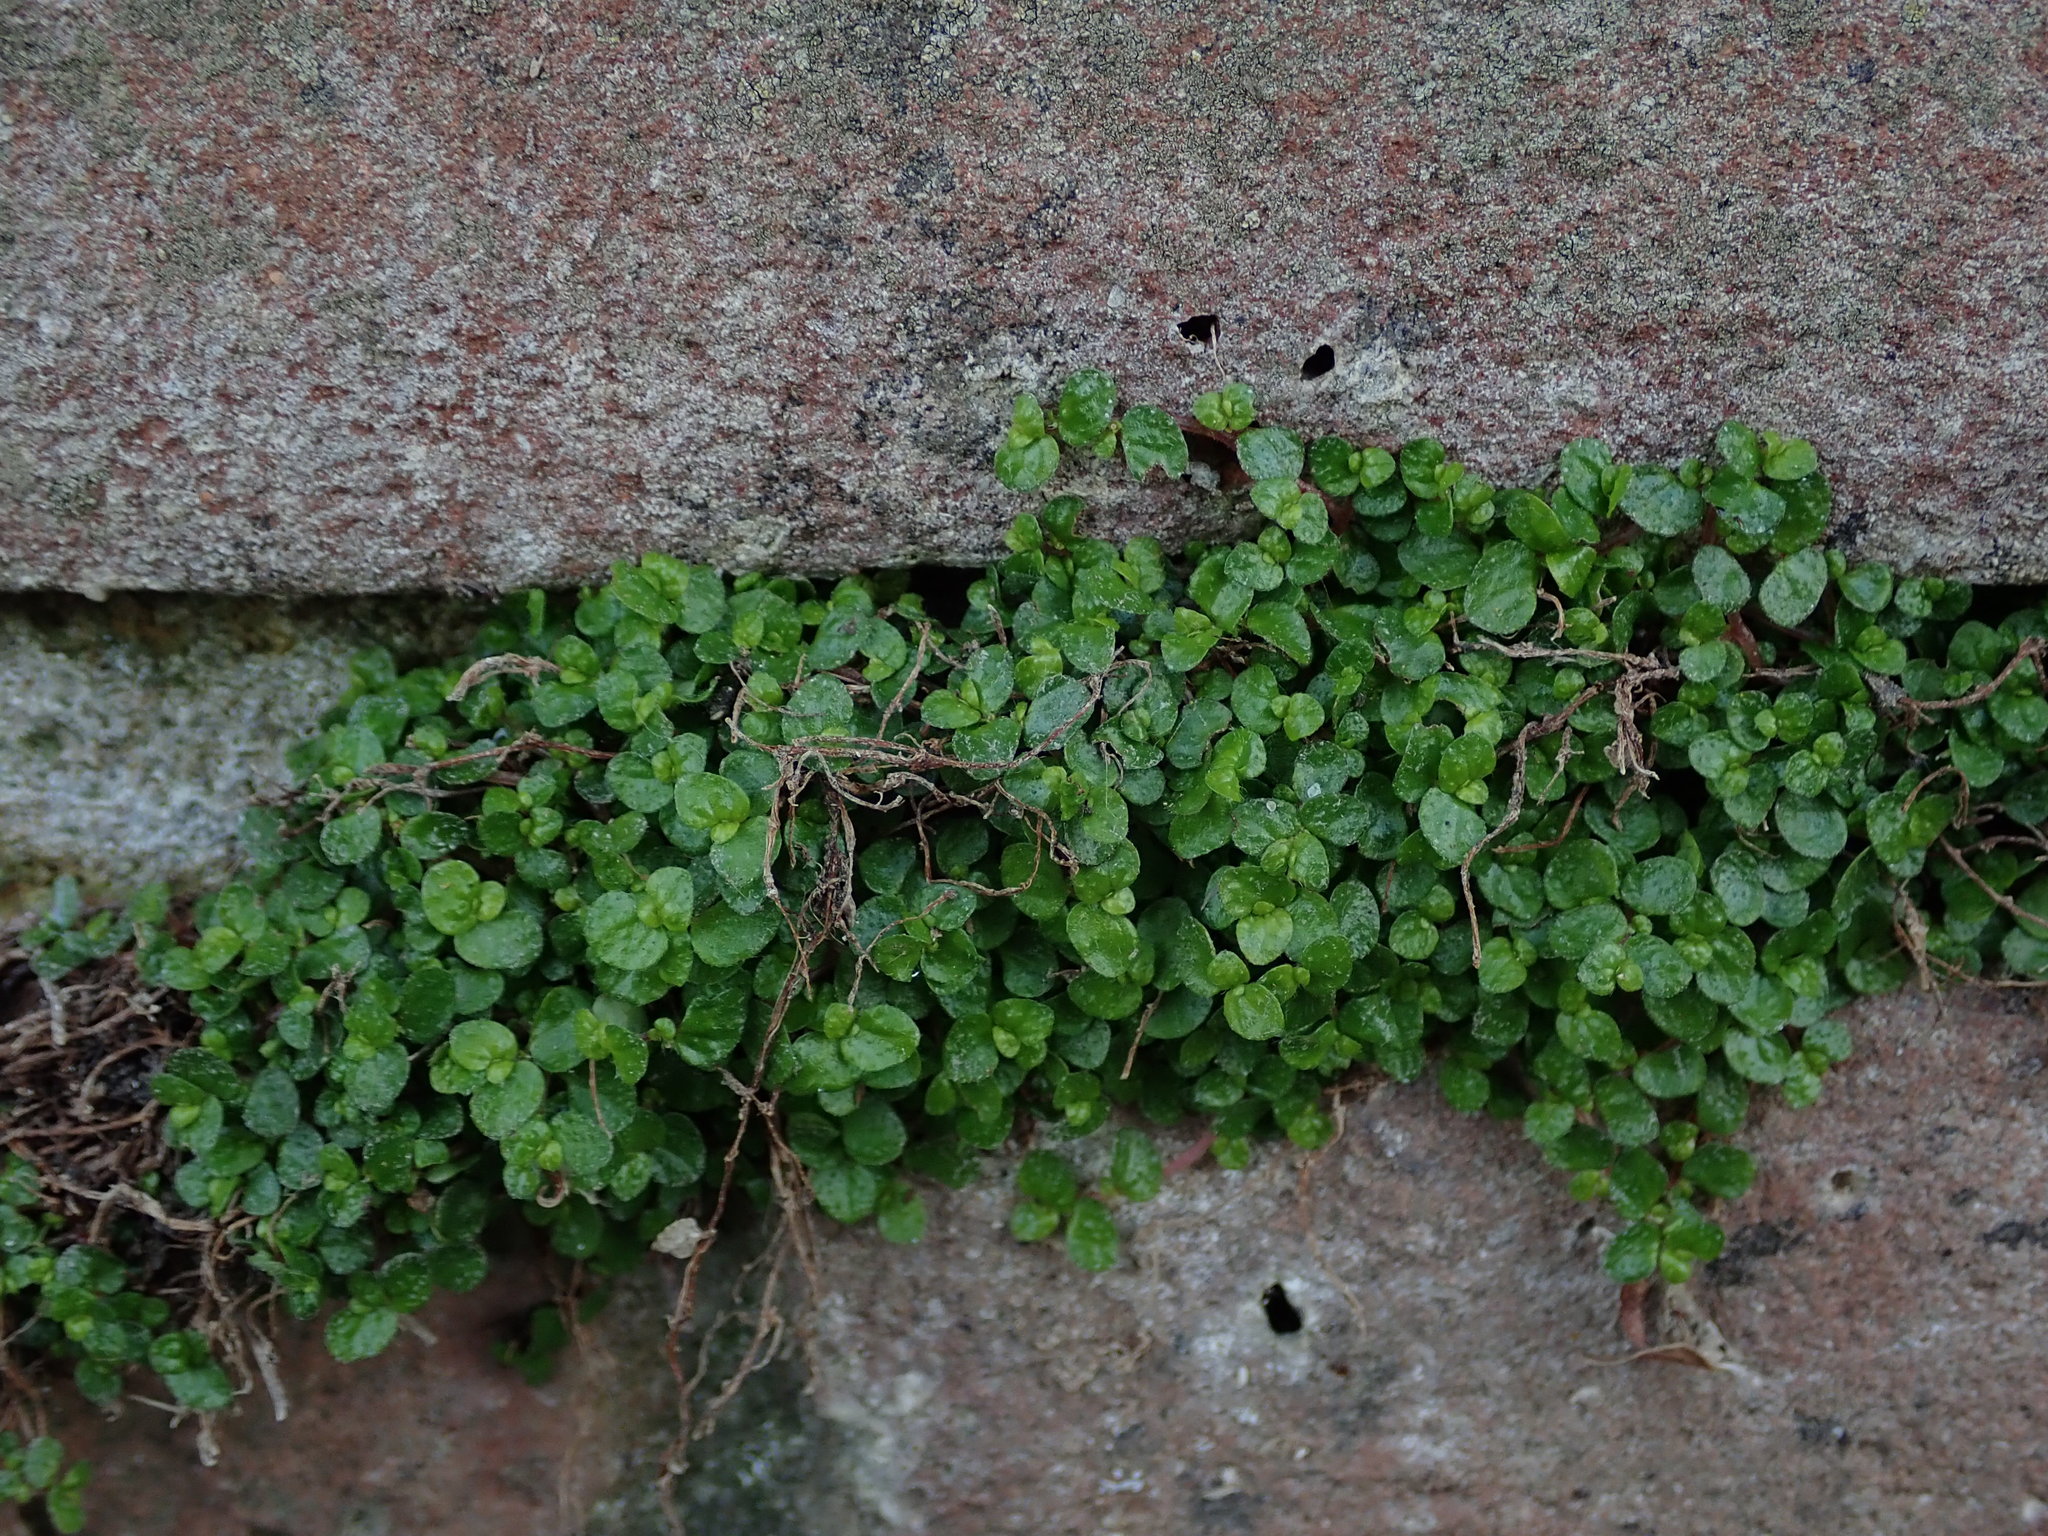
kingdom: Plantae
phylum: Tracheophyta
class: Magnoliopsida
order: Rosales
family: Urticaceae
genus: Soleirolia
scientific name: Soleirolia soleirolii
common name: Mind-your-own-business
